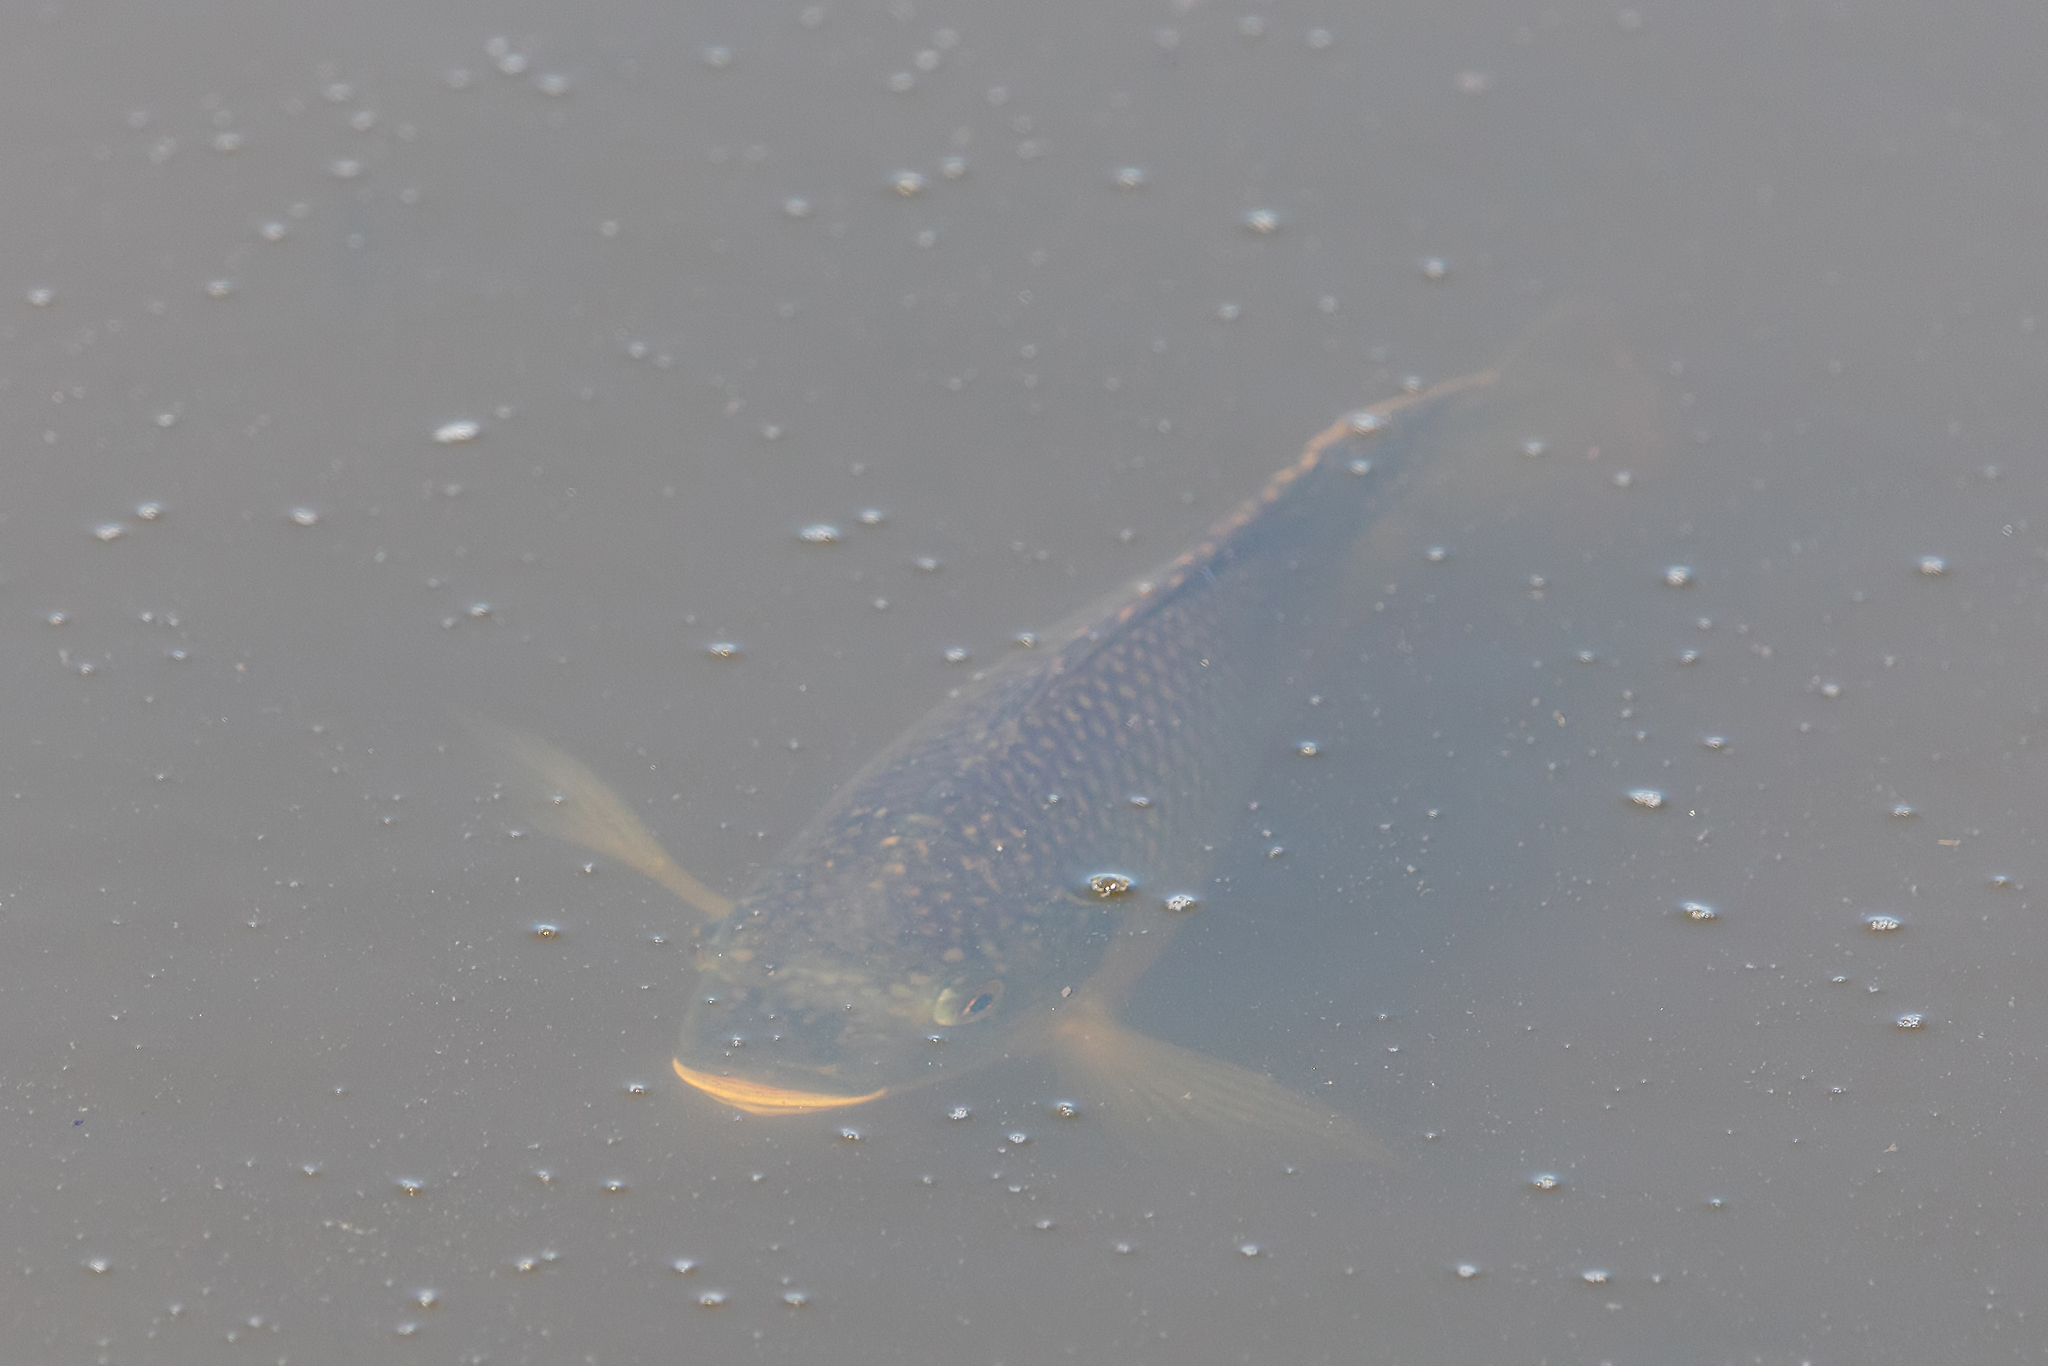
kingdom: Animalia
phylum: Chordata
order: Perciformes
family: Cichlidae
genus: Oreochromis
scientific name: Oreochromis aureus
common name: Blue tilapia
